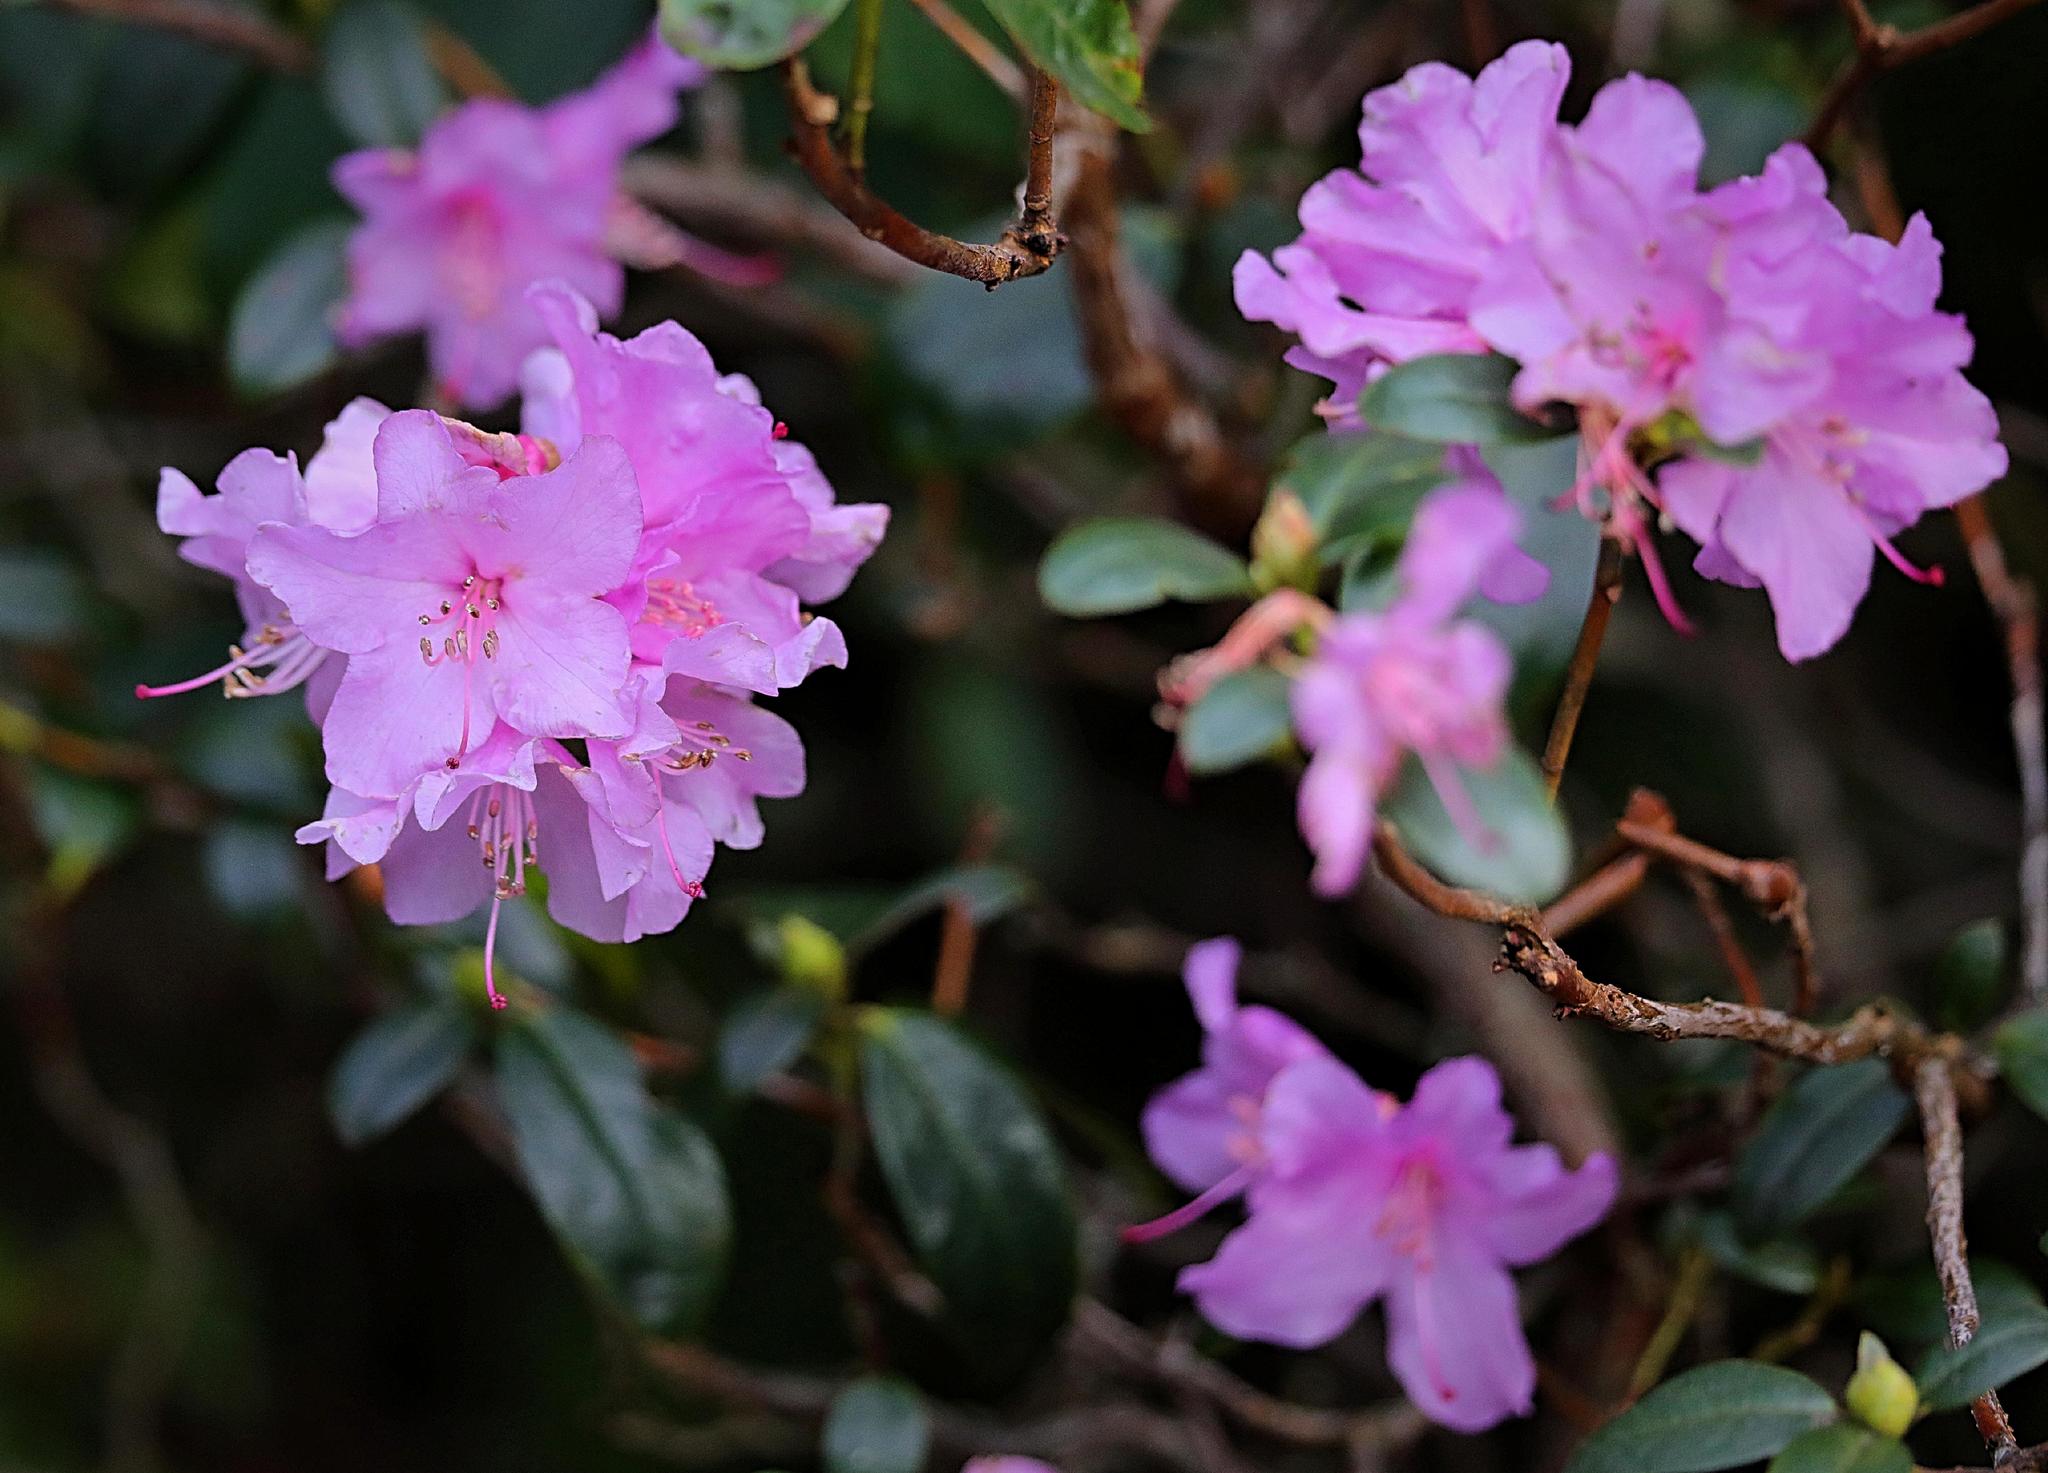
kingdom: Plantae
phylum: Tracheophyta
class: Magnoliopsida
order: Ericales
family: Ericaceae
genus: Rhododendron
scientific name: Rhododendron
